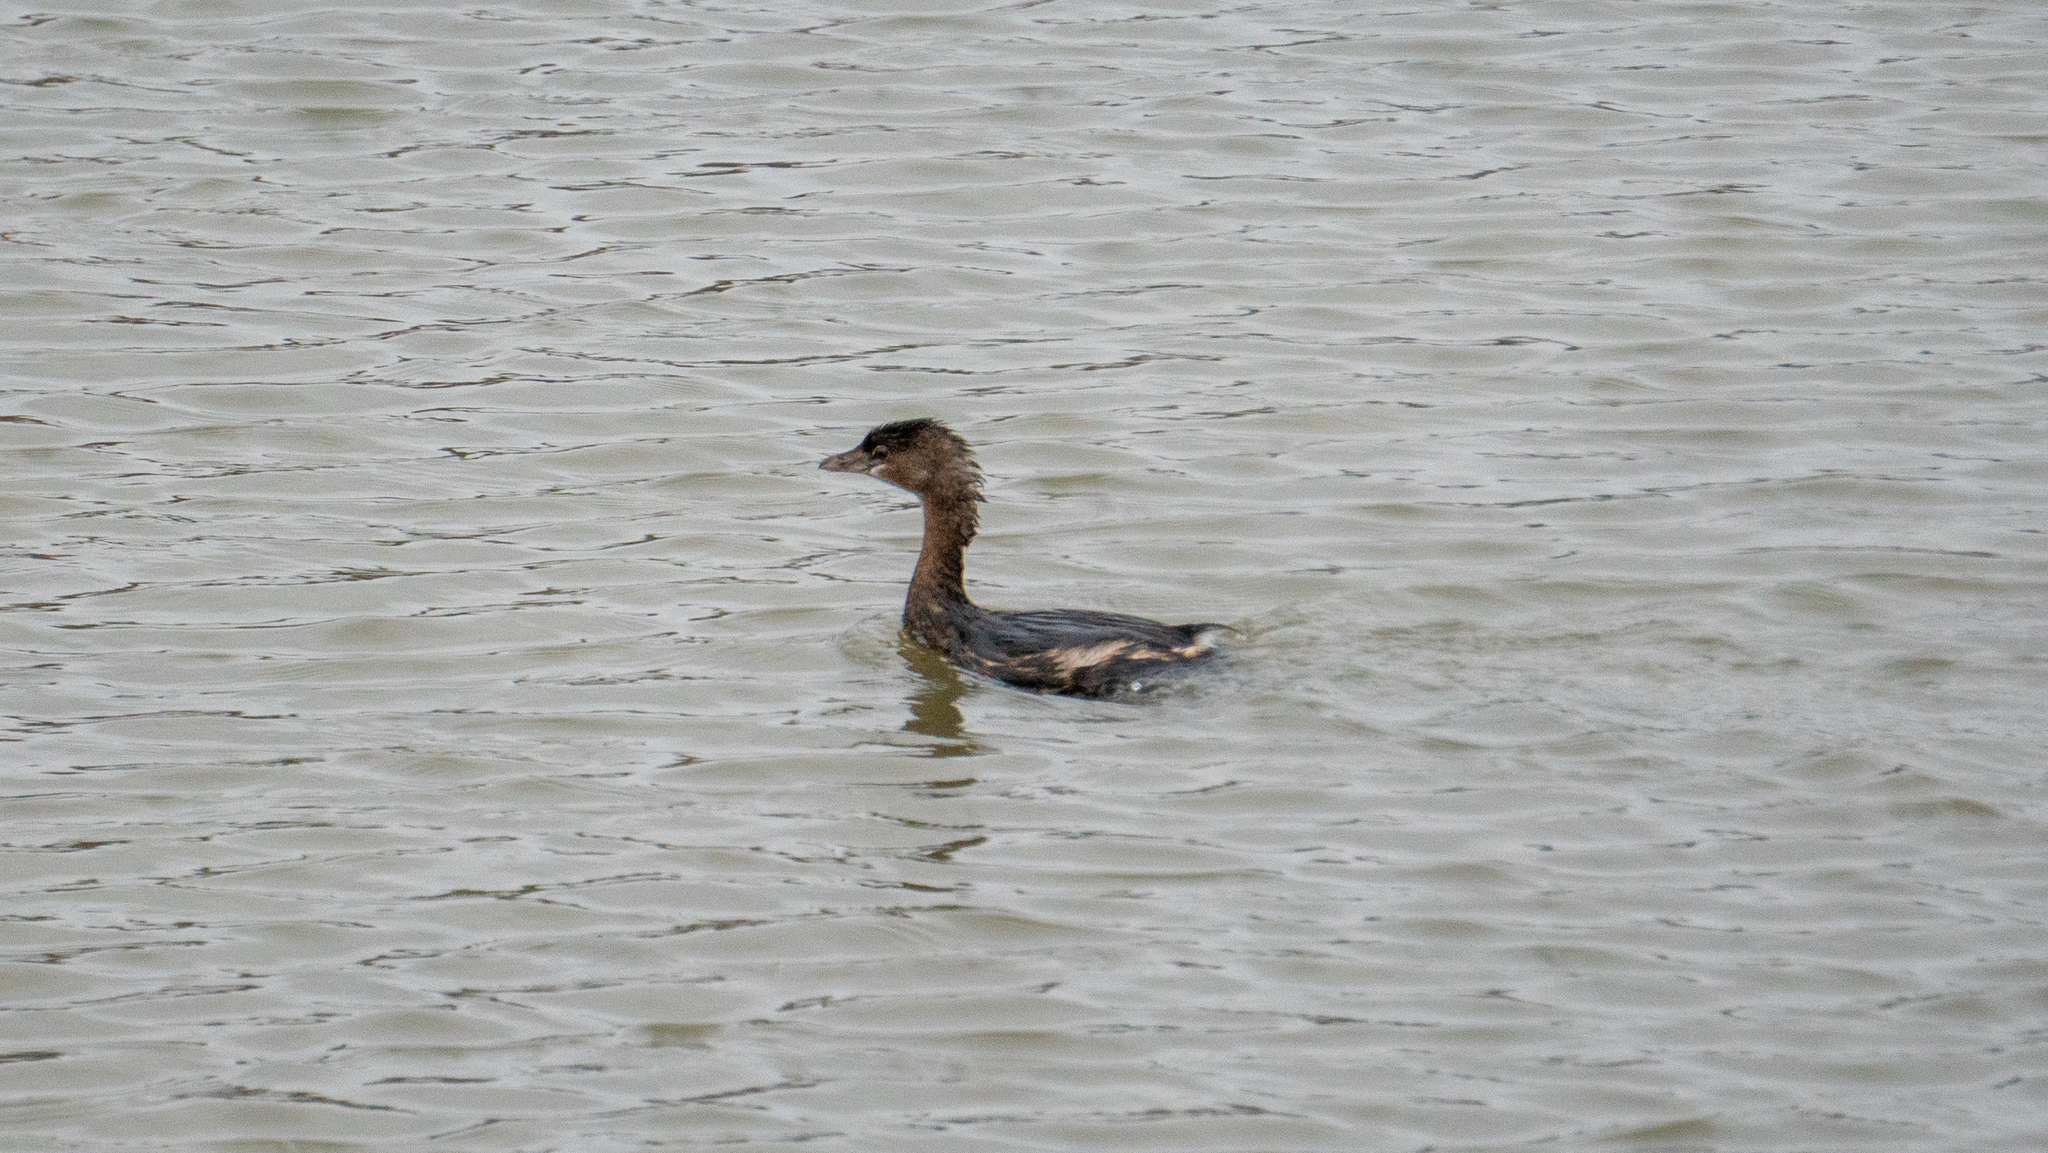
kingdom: Animalia
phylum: Chordata
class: Aves
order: Podicipediformes
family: Podicipedidae
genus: Podilymbus
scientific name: Podilymbus podiceps
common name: Pied-billed grebe
